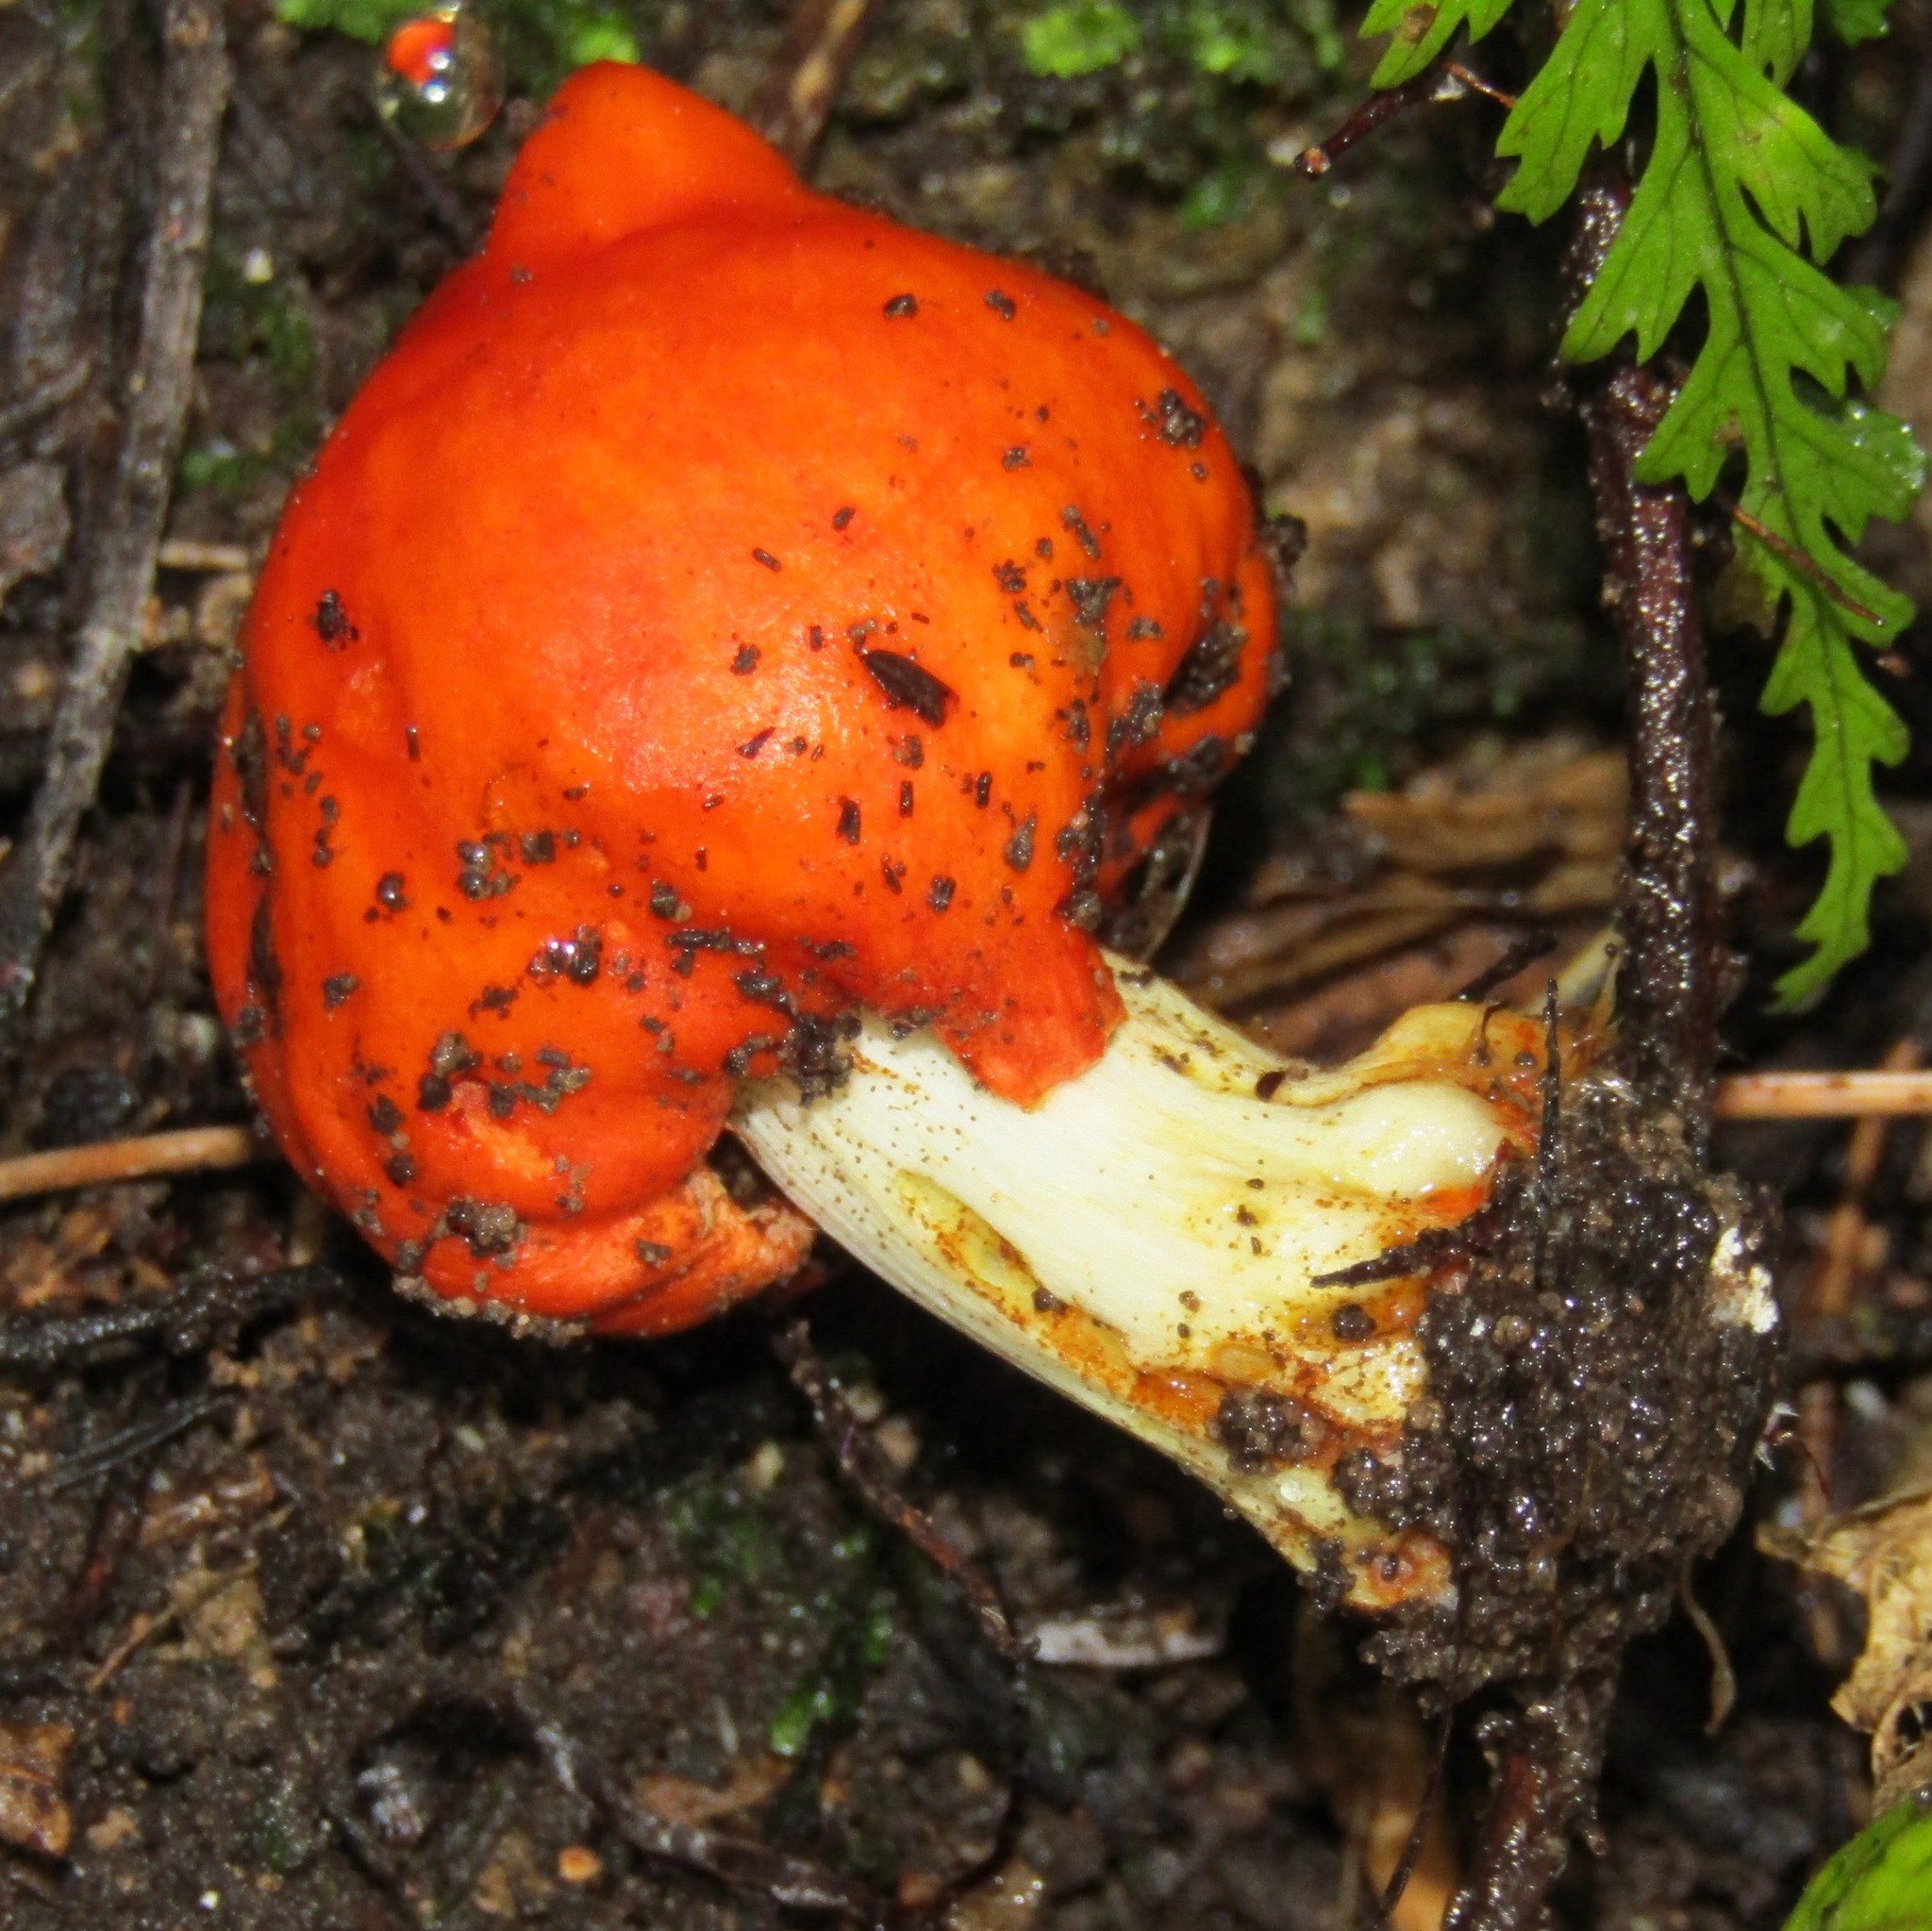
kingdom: Fungi
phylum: Basidiomycota
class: Agaricomycetes
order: Agaricales
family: Strophariaceae
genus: Leratiomyces
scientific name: Leratiomyces erythrocephalus
